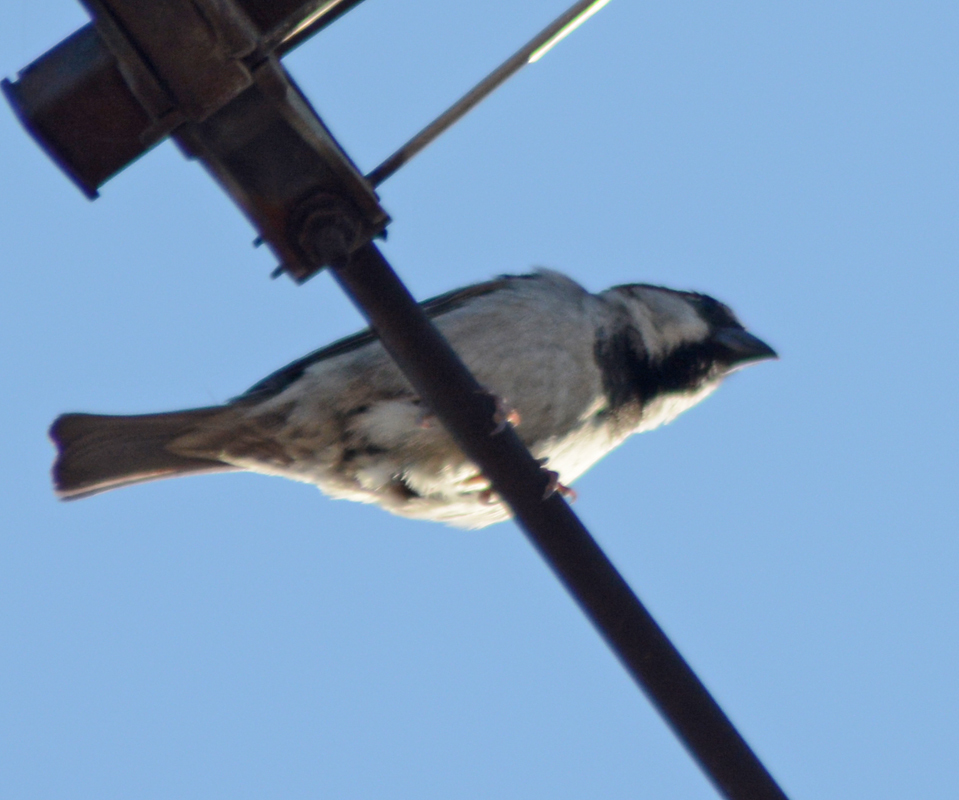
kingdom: Animalia
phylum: Chordata
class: Aves
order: Passeriformes
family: Passeridae
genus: Passer
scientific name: Passer domesticus
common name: House sparrow
